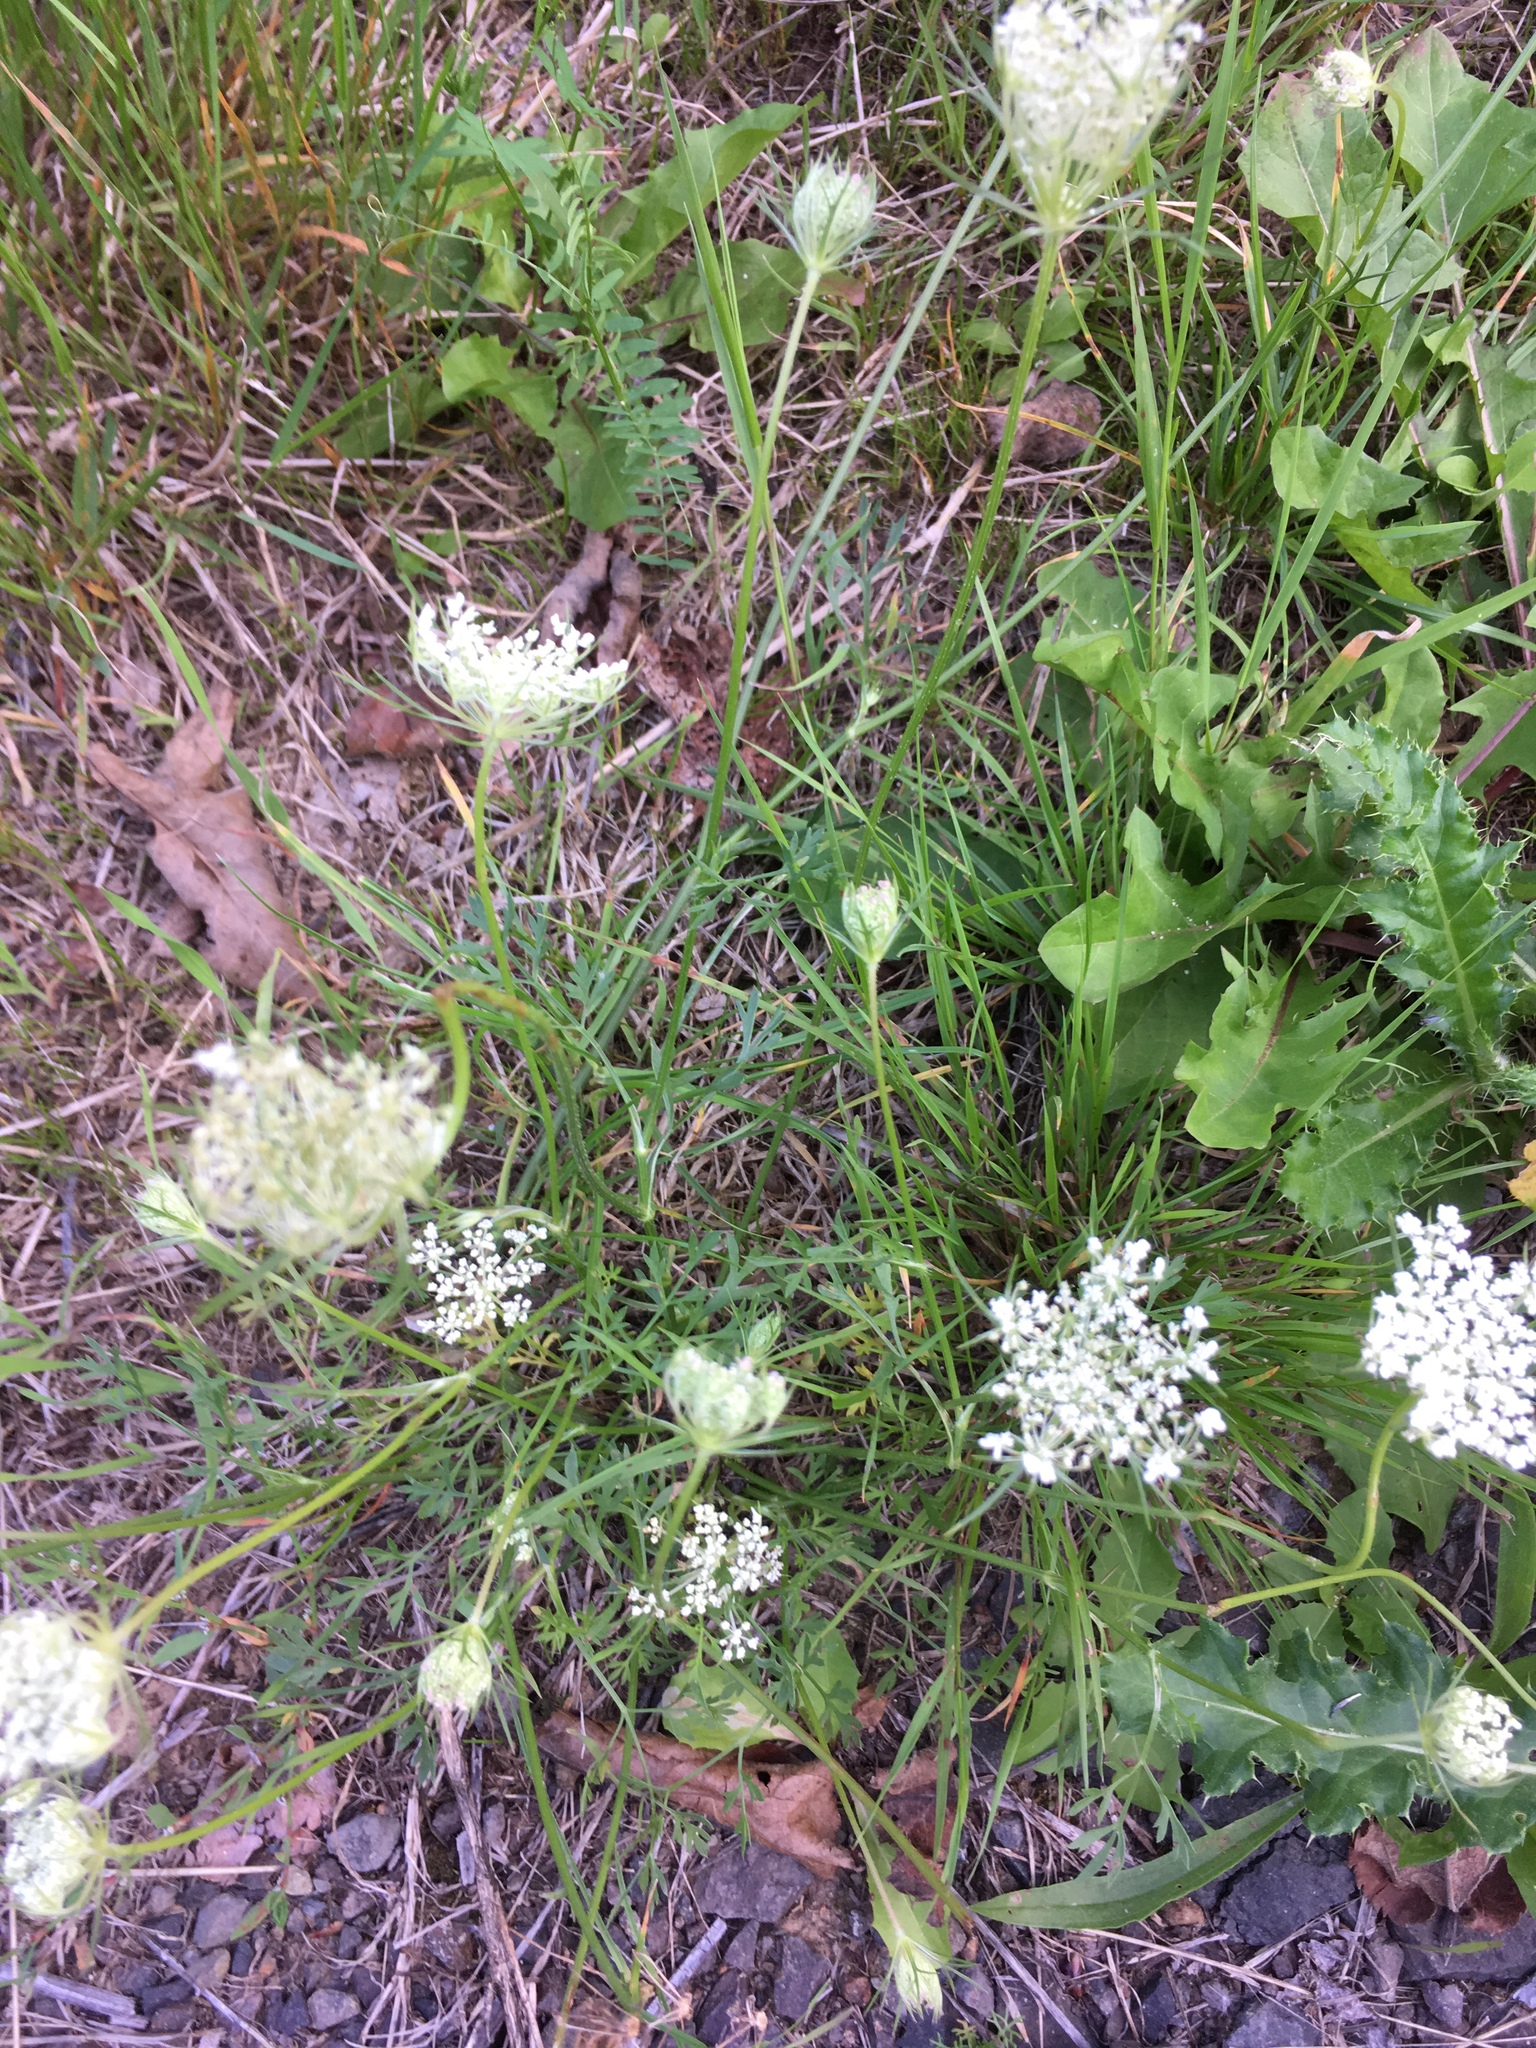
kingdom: Plantae
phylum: Tracheophyta
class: Magnoliopsida
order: Apiales
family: Apiaceae
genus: Daucus
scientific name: Daucus carota
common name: Wild carrot
